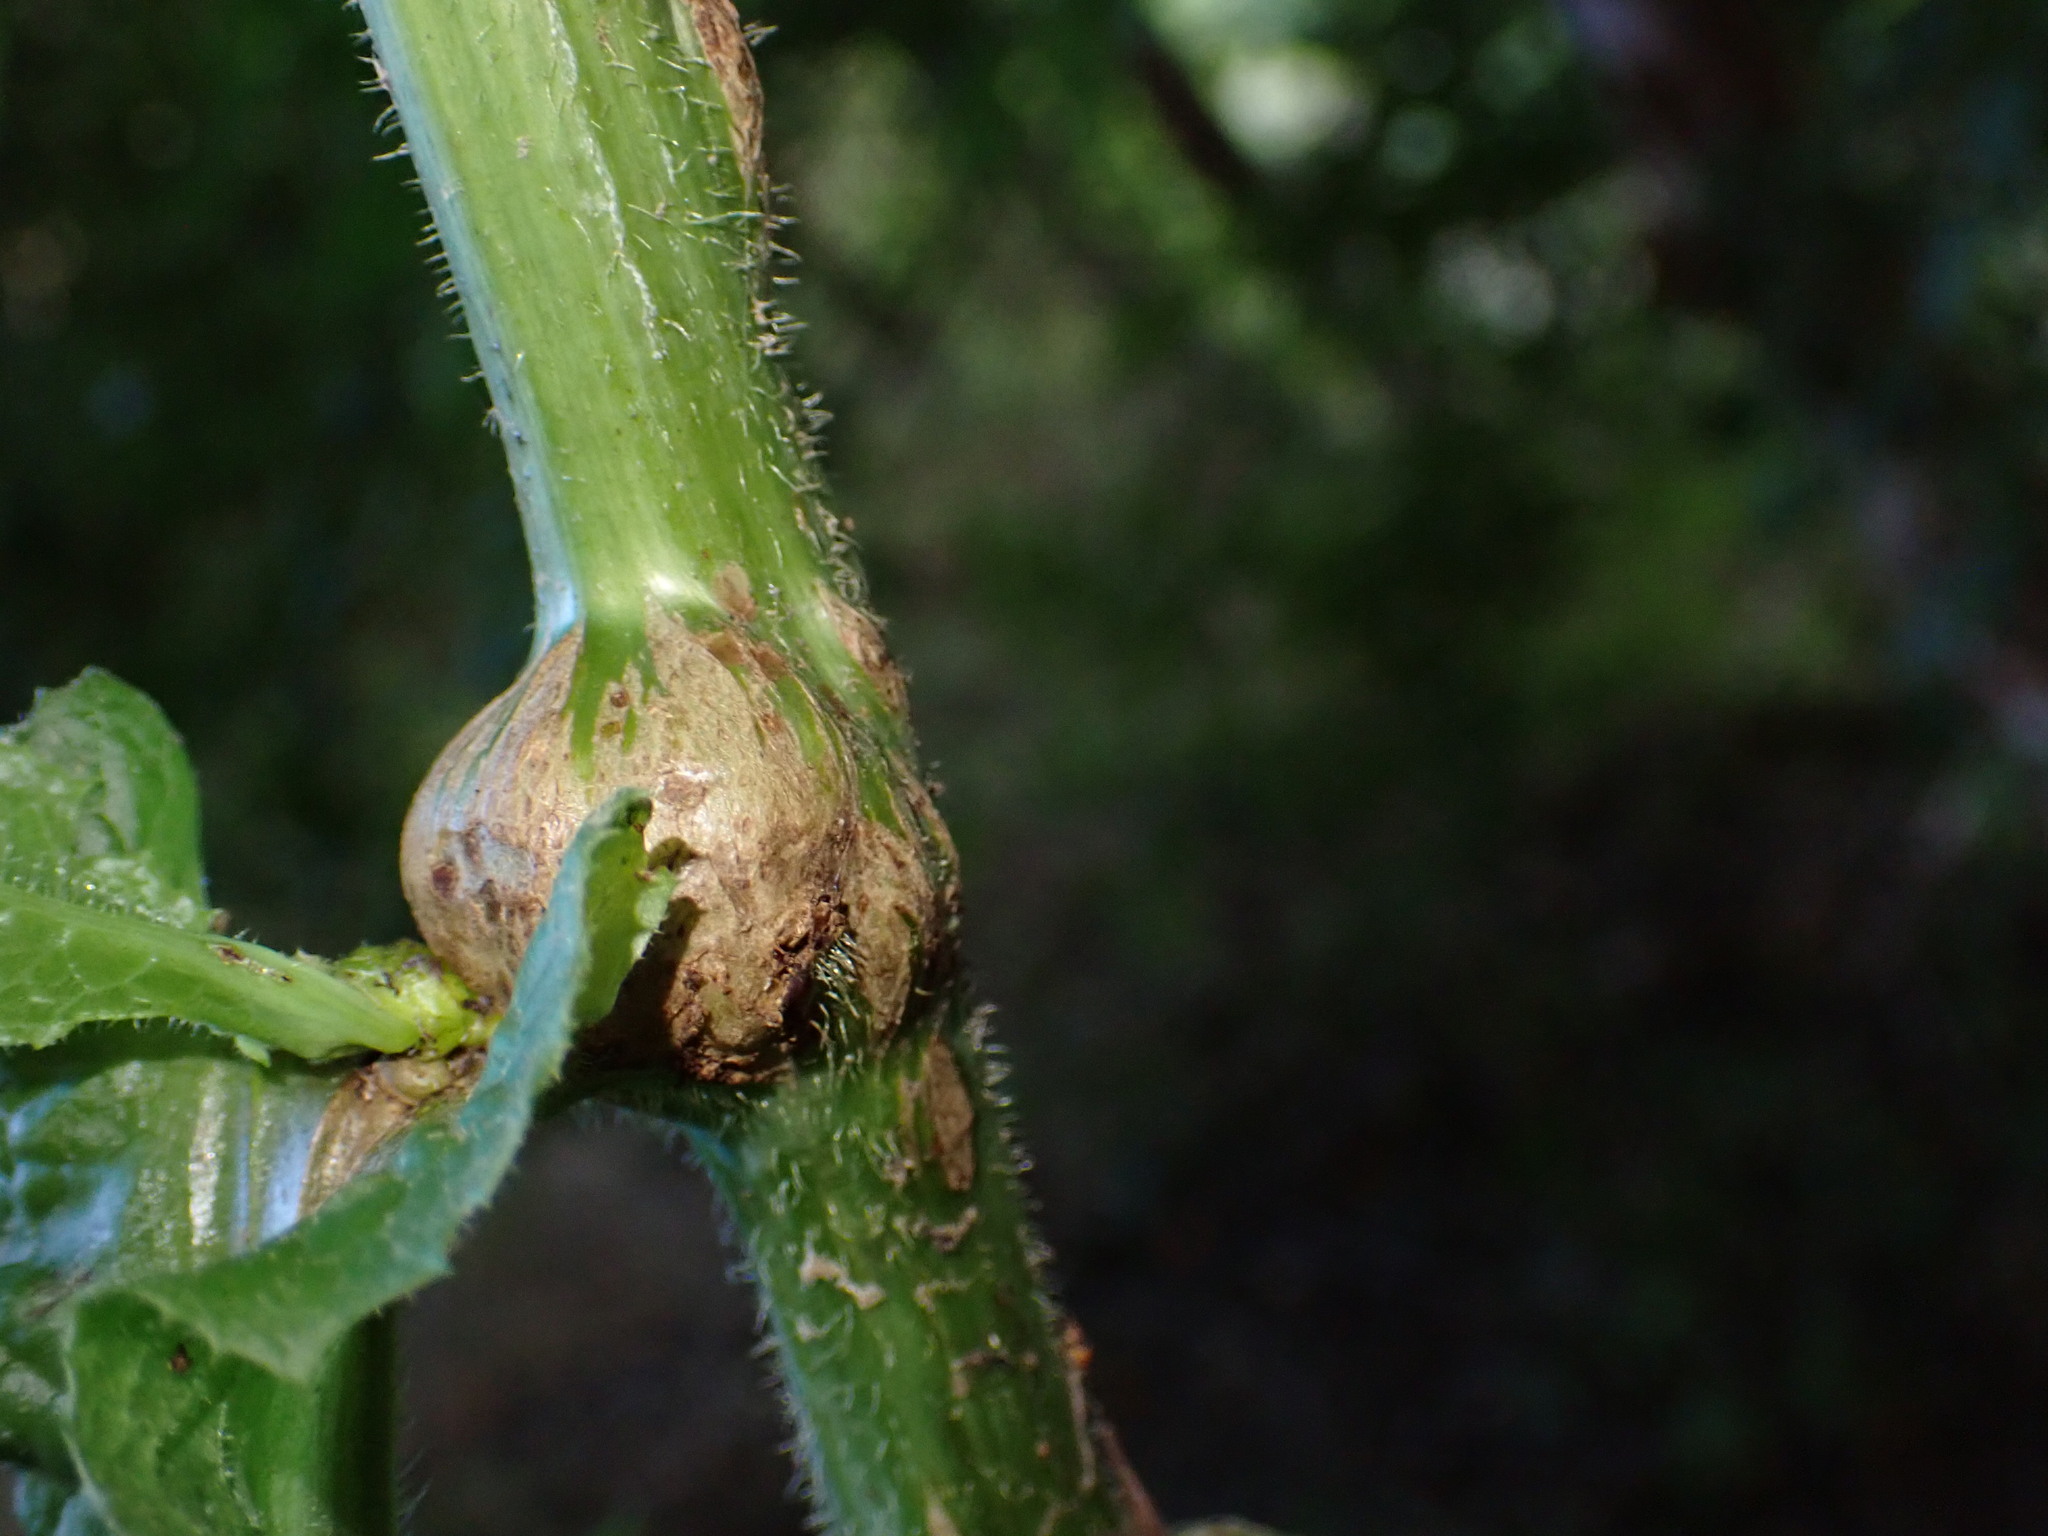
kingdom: Animalia
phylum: Arthropoda
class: Insecta
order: Hymenoptera
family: Cynipidae
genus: Aulacidea
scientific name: Aulacidea
